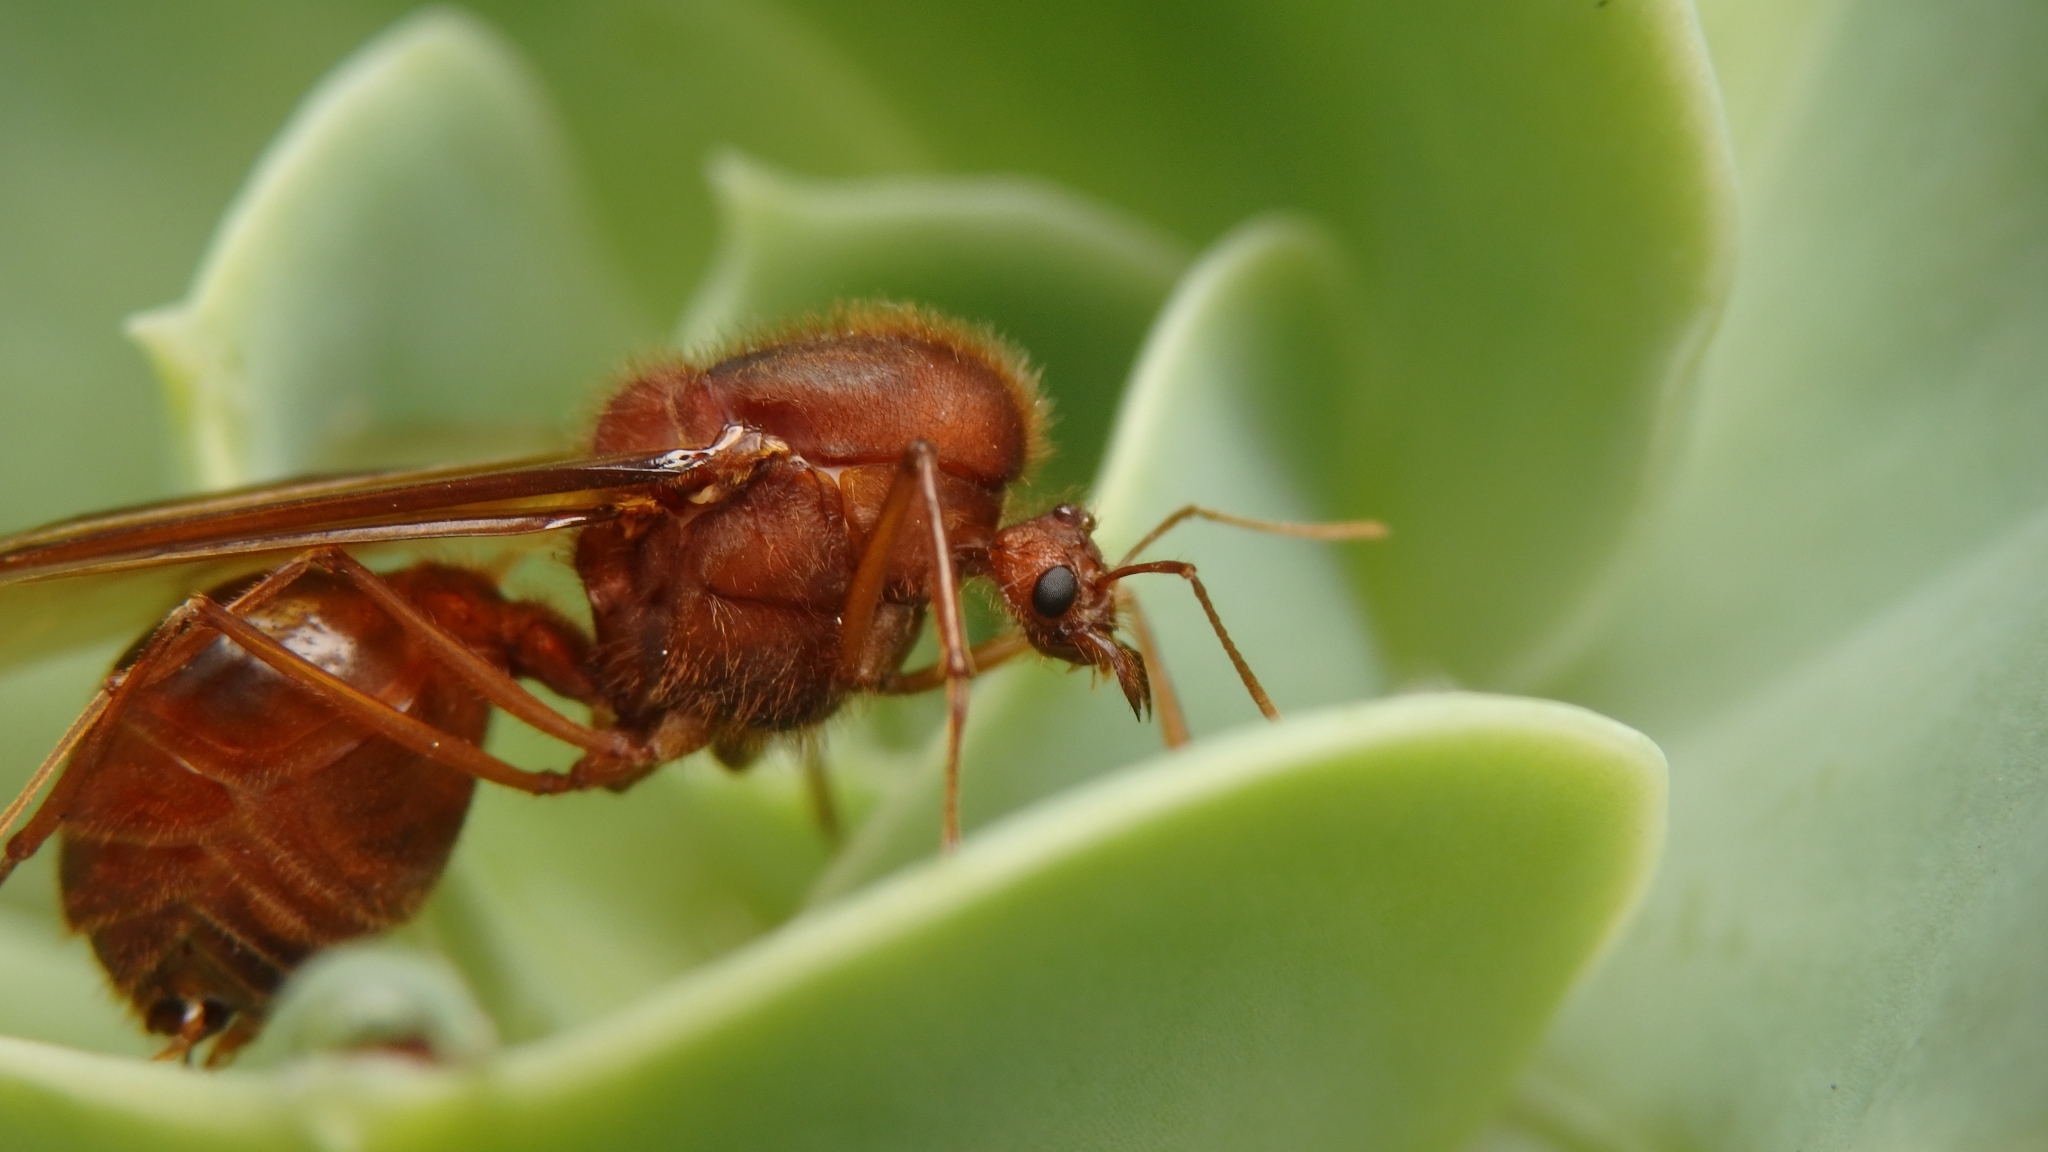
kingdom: Animalia
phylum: Arthropoda
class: Insecta
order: Hymenoptera
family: Formicidae
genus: Atta
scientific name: Atta cephalotes
